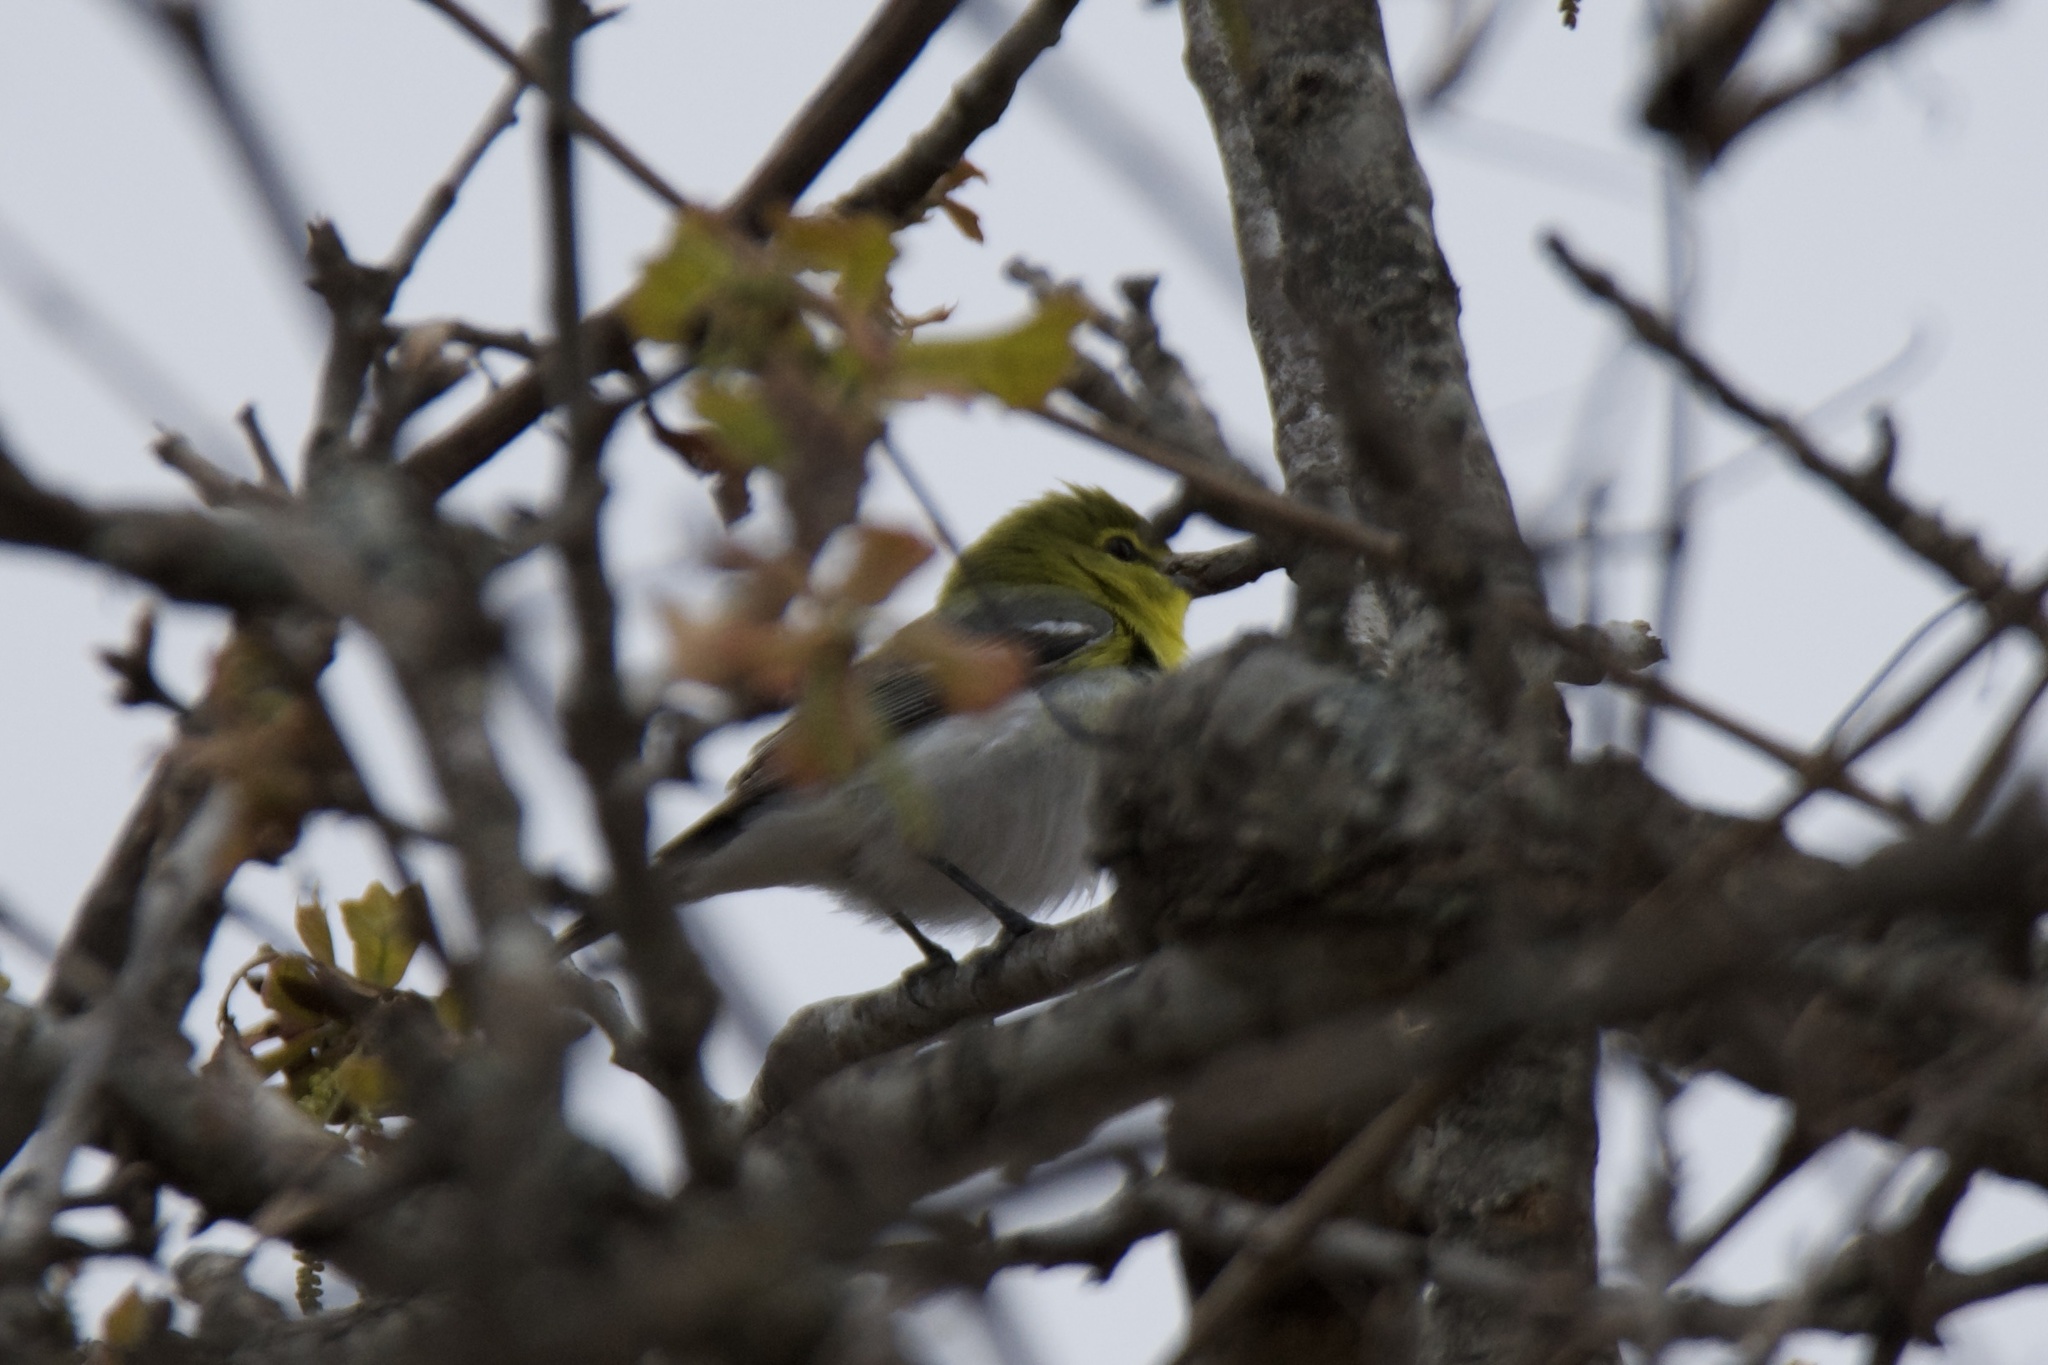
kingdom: Animalia
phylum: Chordata
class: Aves
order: Passeriformes
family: Vireonidae
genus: Vireo
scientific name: Vireo flavifrons
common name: Yellow-throated vireo
